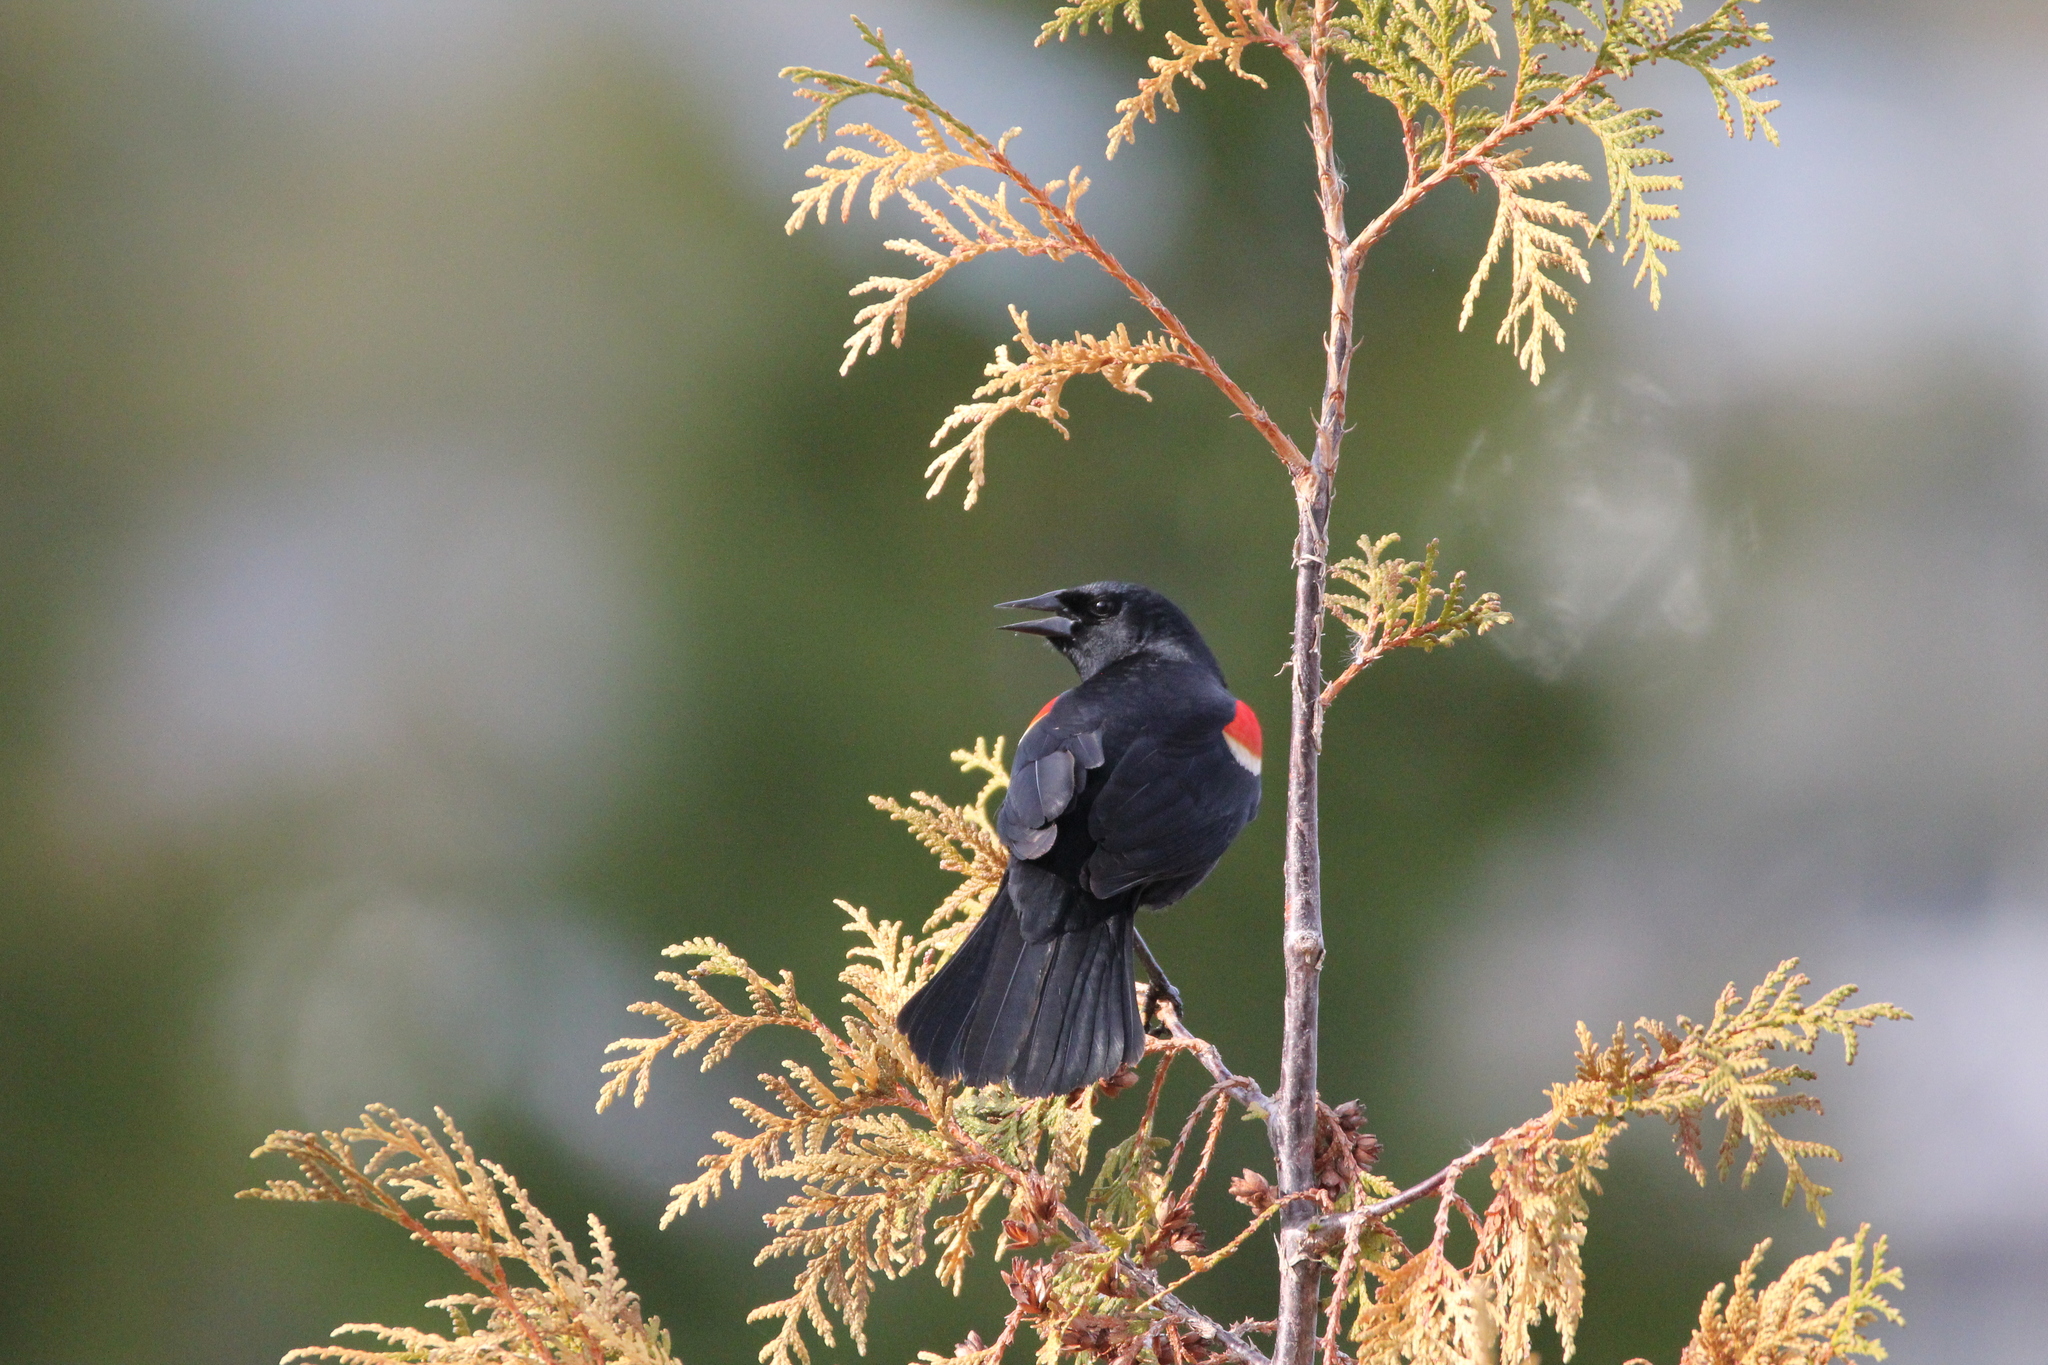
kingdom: Animalia
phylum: Chordata
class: Aves
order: Passeriformes
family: Icteridae
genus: Agelaius
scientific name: Agelaius phoeniceus
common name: Red-winged blackbird
